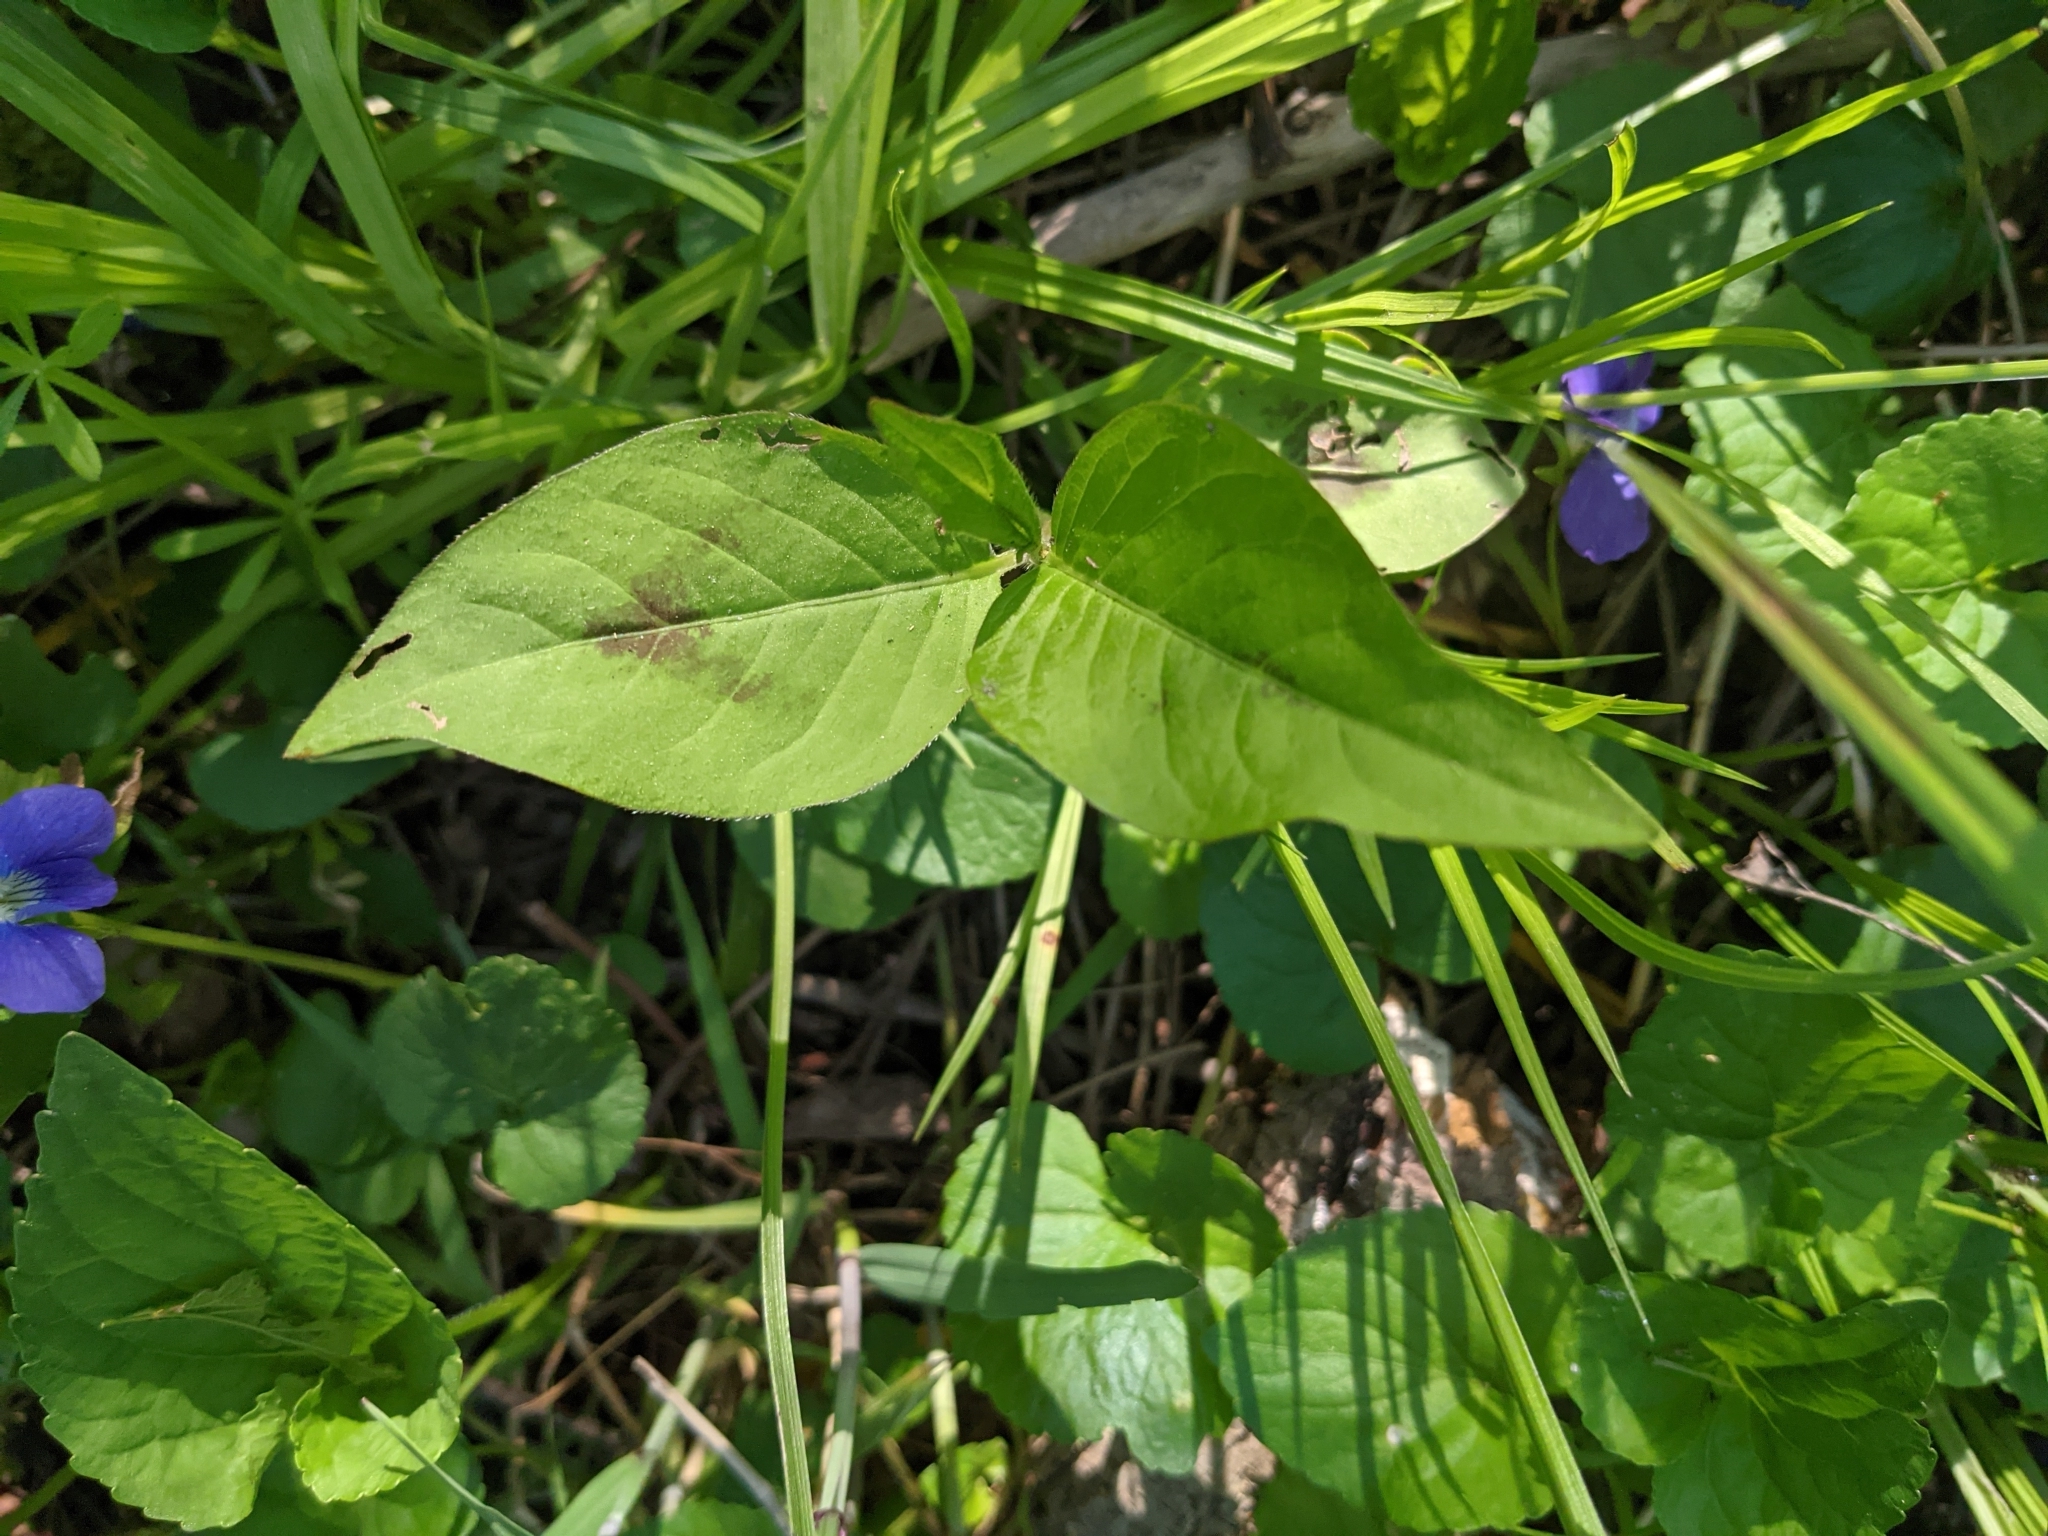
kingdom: Plantae
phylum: Tracheophyta
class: Magnoliopsida
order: Caryophyllales
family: Polygonaceae
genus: Persicaria
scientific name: Persicaria virginiana
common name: Jumpseed
